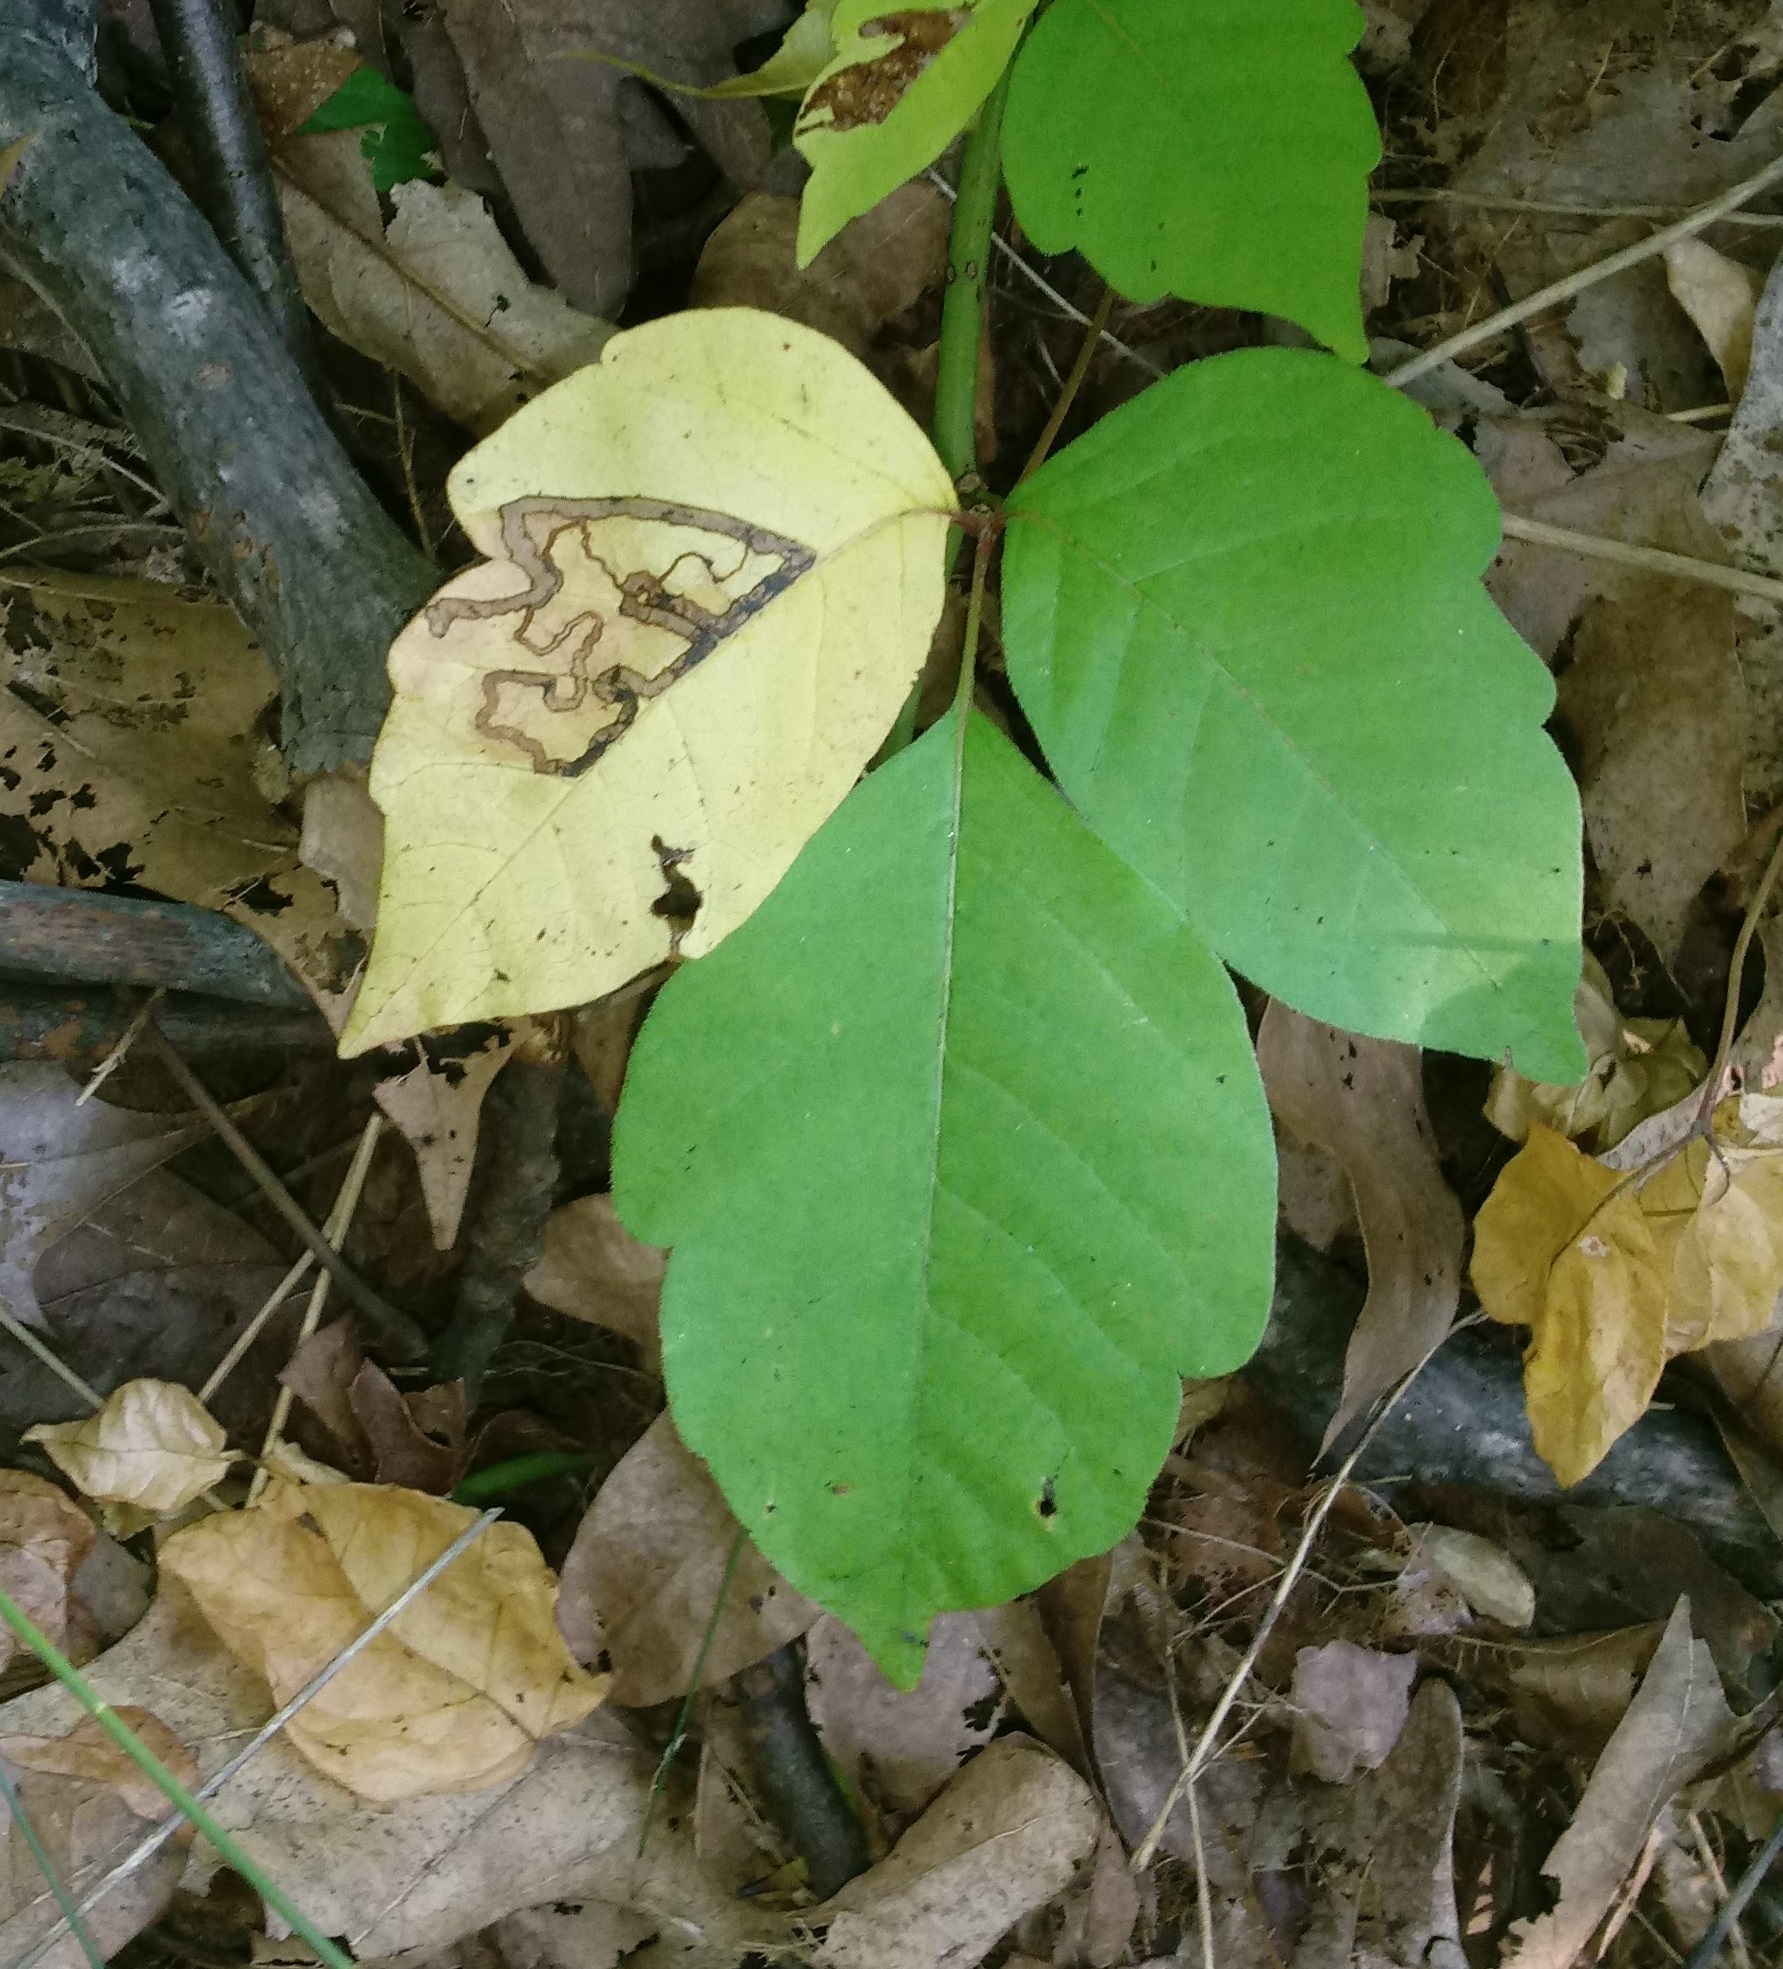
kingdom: Animalia
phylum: Arthropoda
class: Insecta
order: Lepidoptera
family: Nepticulidae
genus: Stigmella
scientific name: Stigmella rhoifoliella
